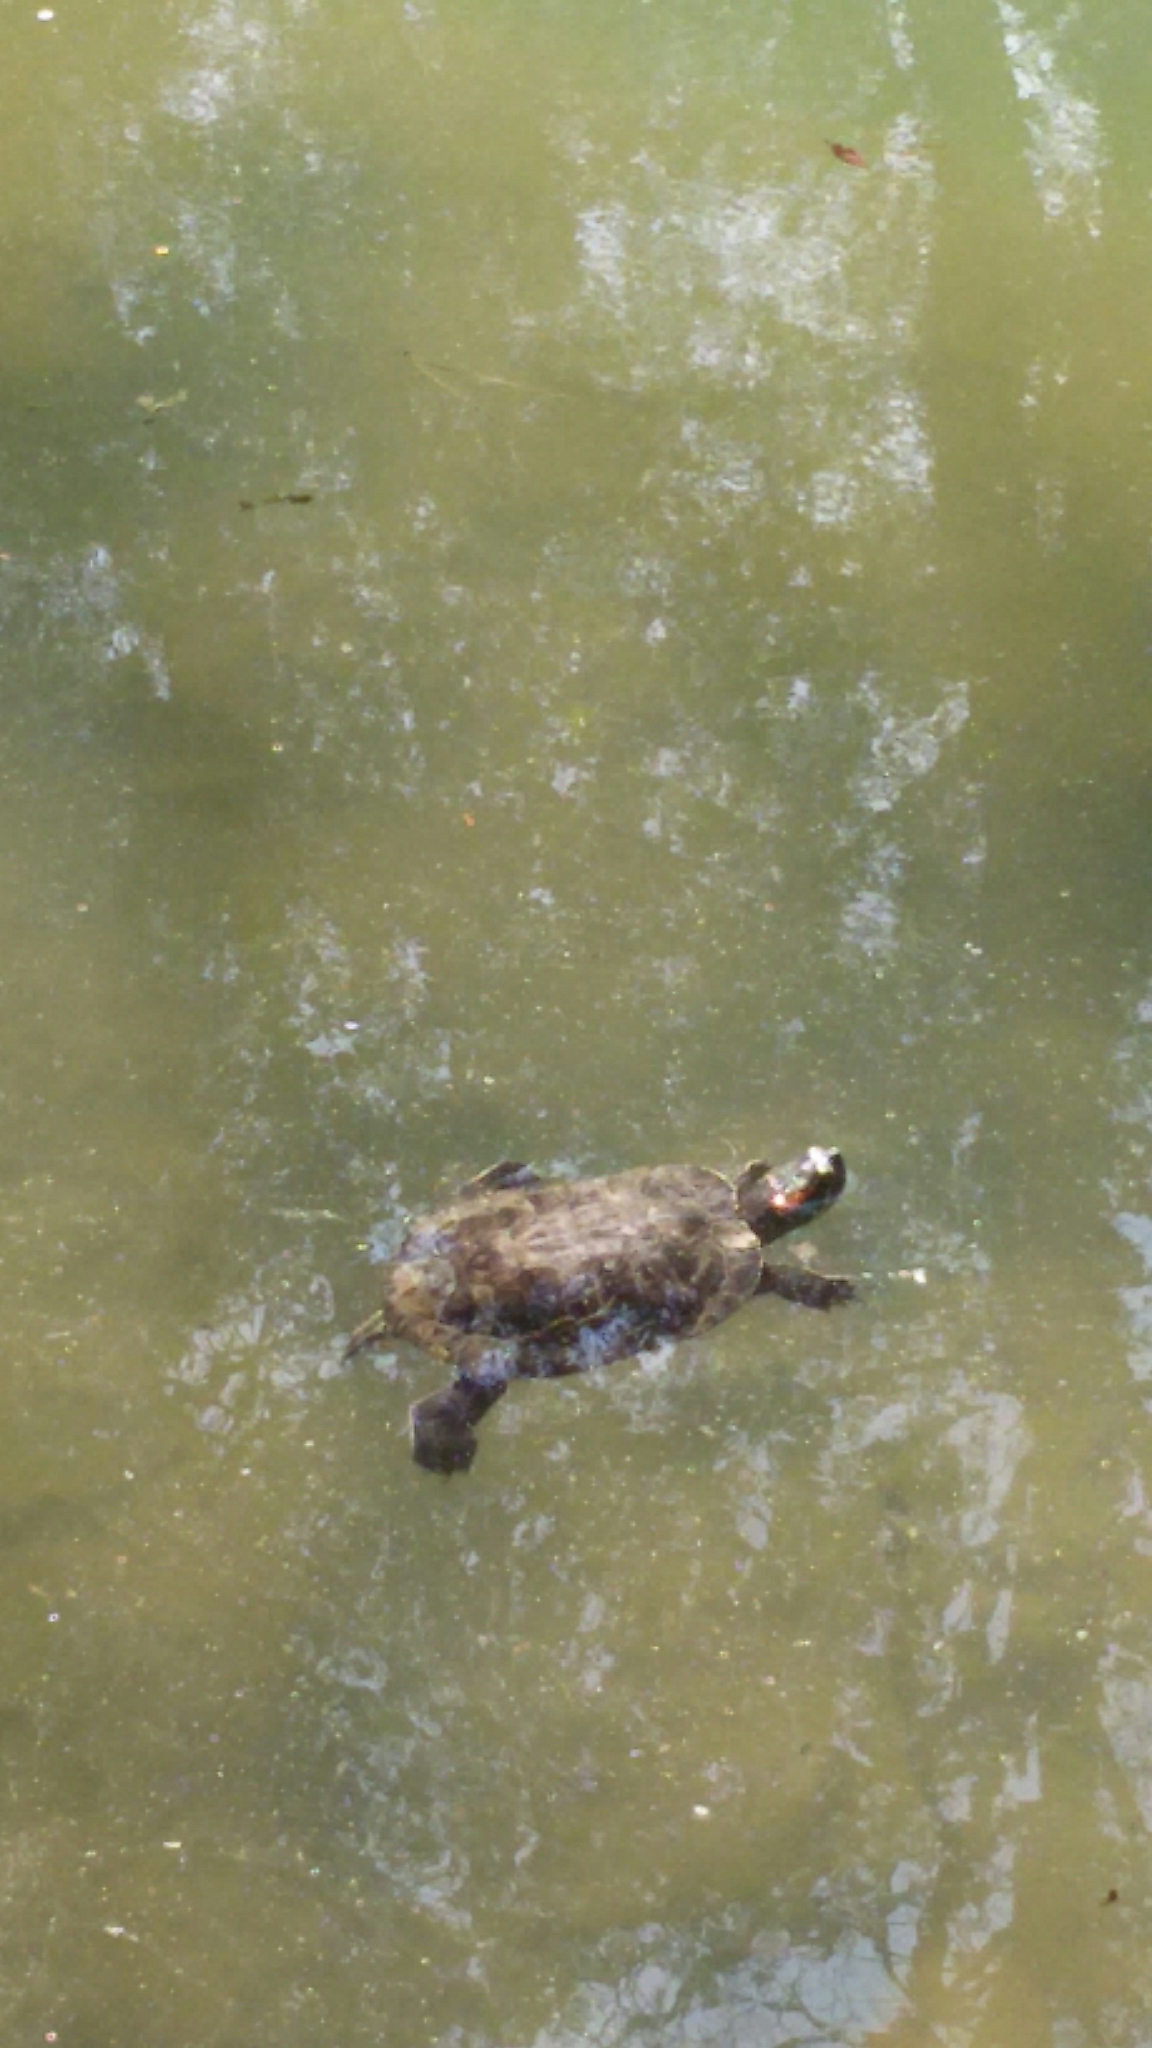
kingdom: Animalia
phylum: Chordata
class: Testudines
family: Emydidae
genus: Trachemys
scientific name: Trachemys scripta
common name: Slider
